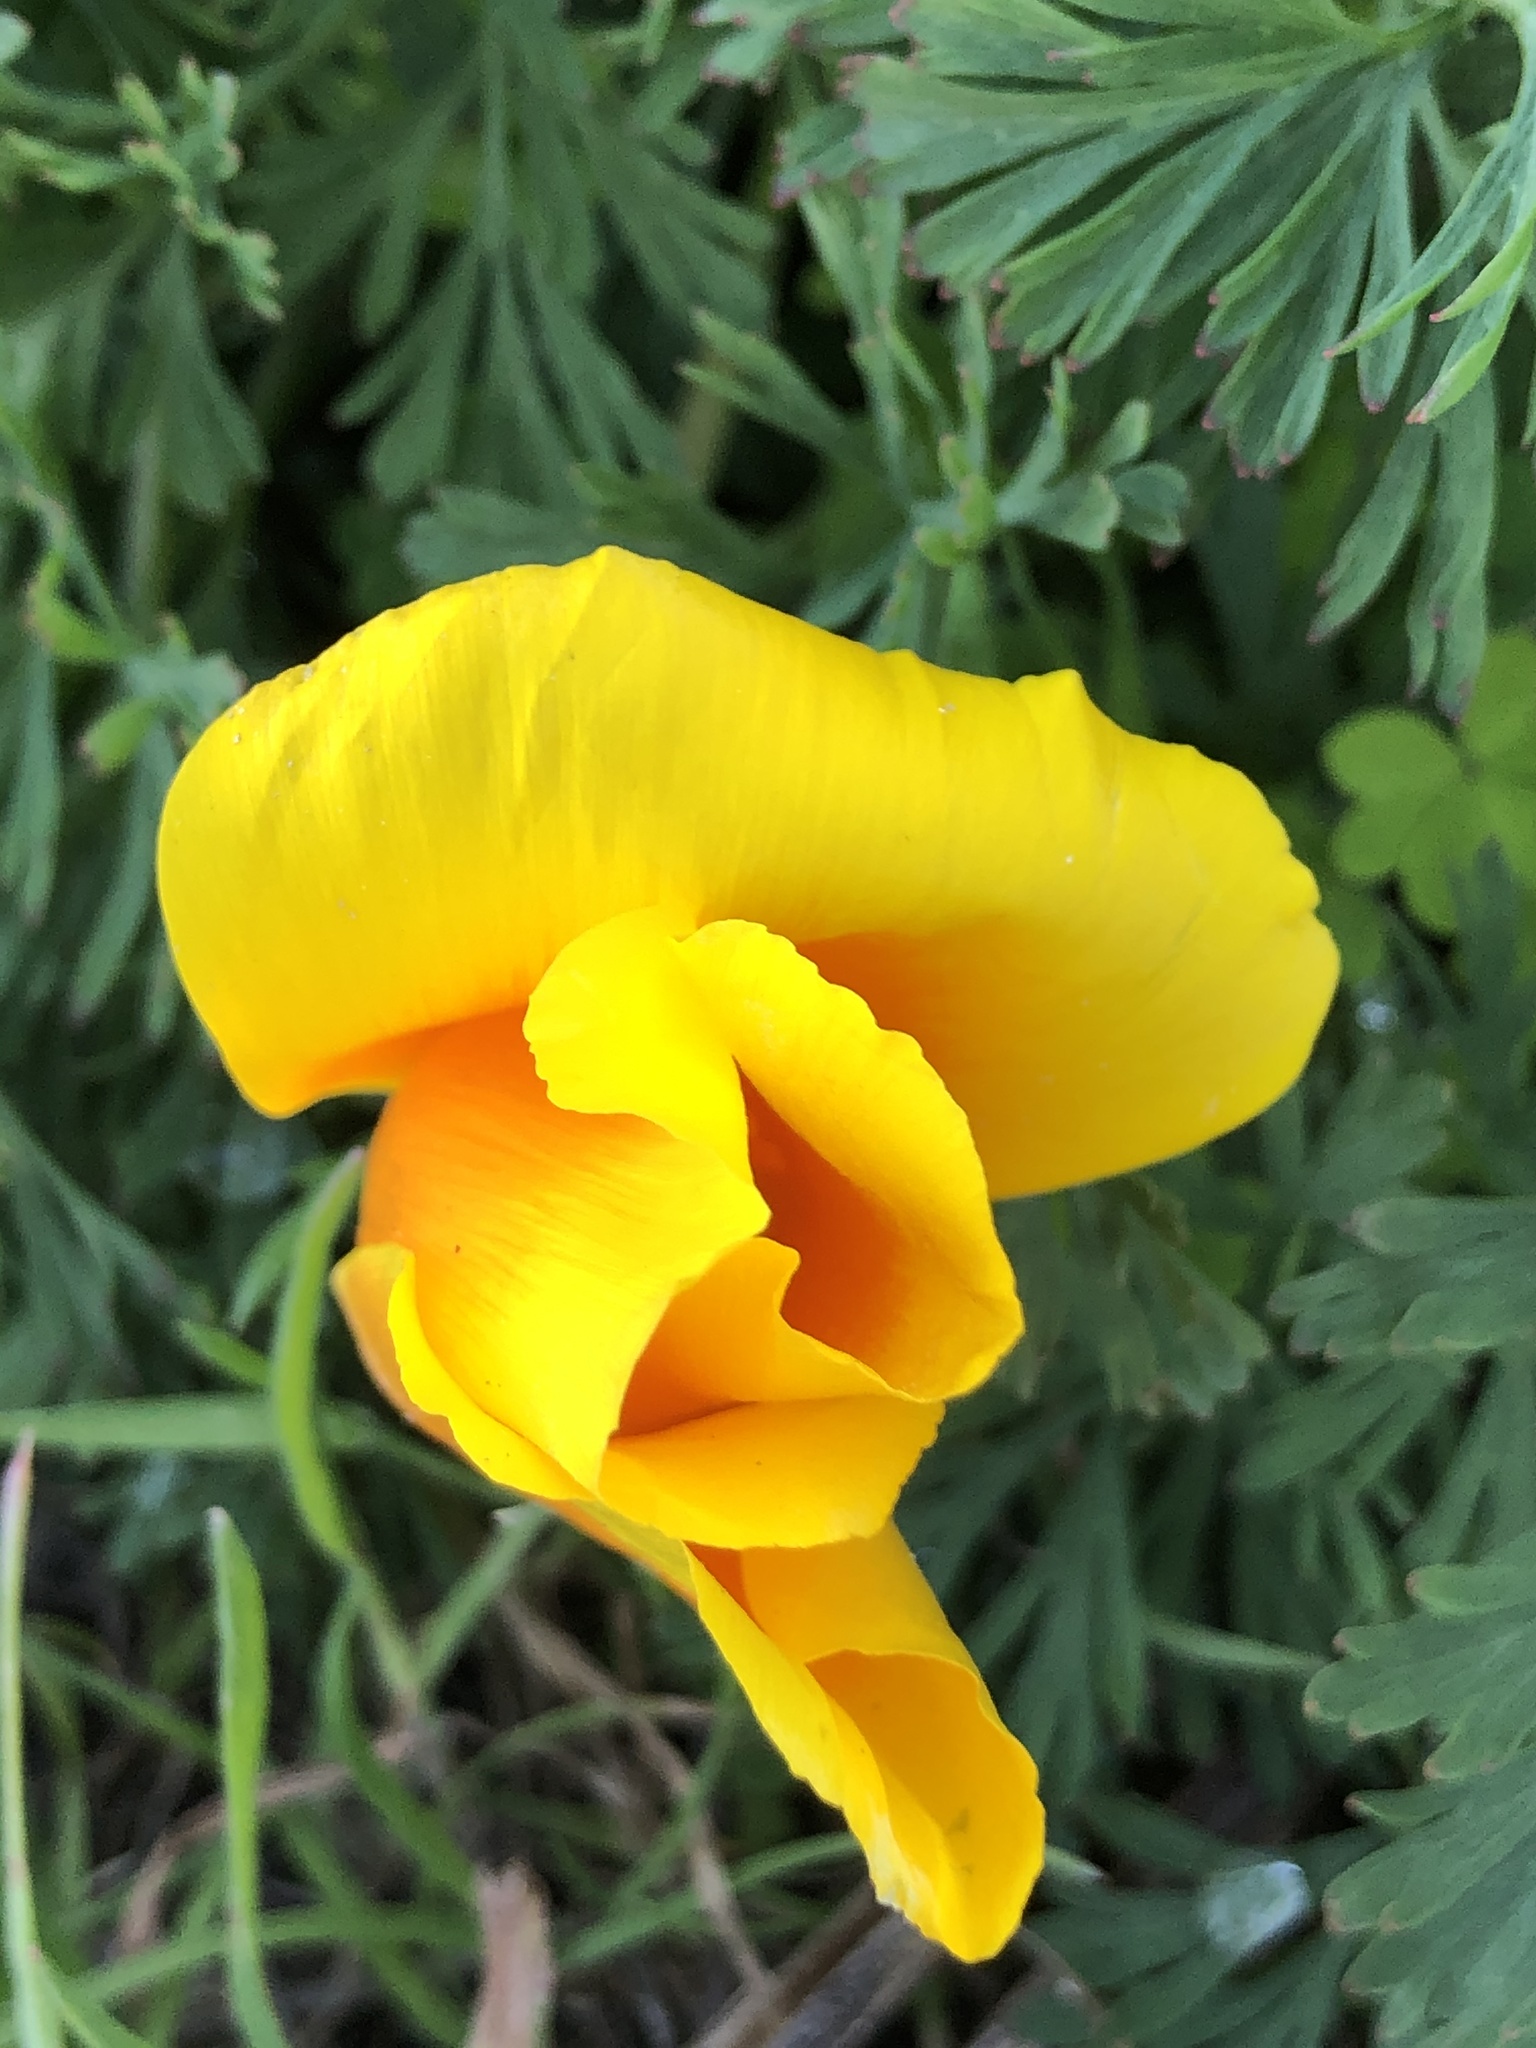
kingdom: Plantae
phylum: Tracheophyta
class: Magnoliopsida
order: Ranunculales
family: Papaveraceae
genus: Eschscholzia
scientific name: Eschscholzia californica
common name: California poppy
